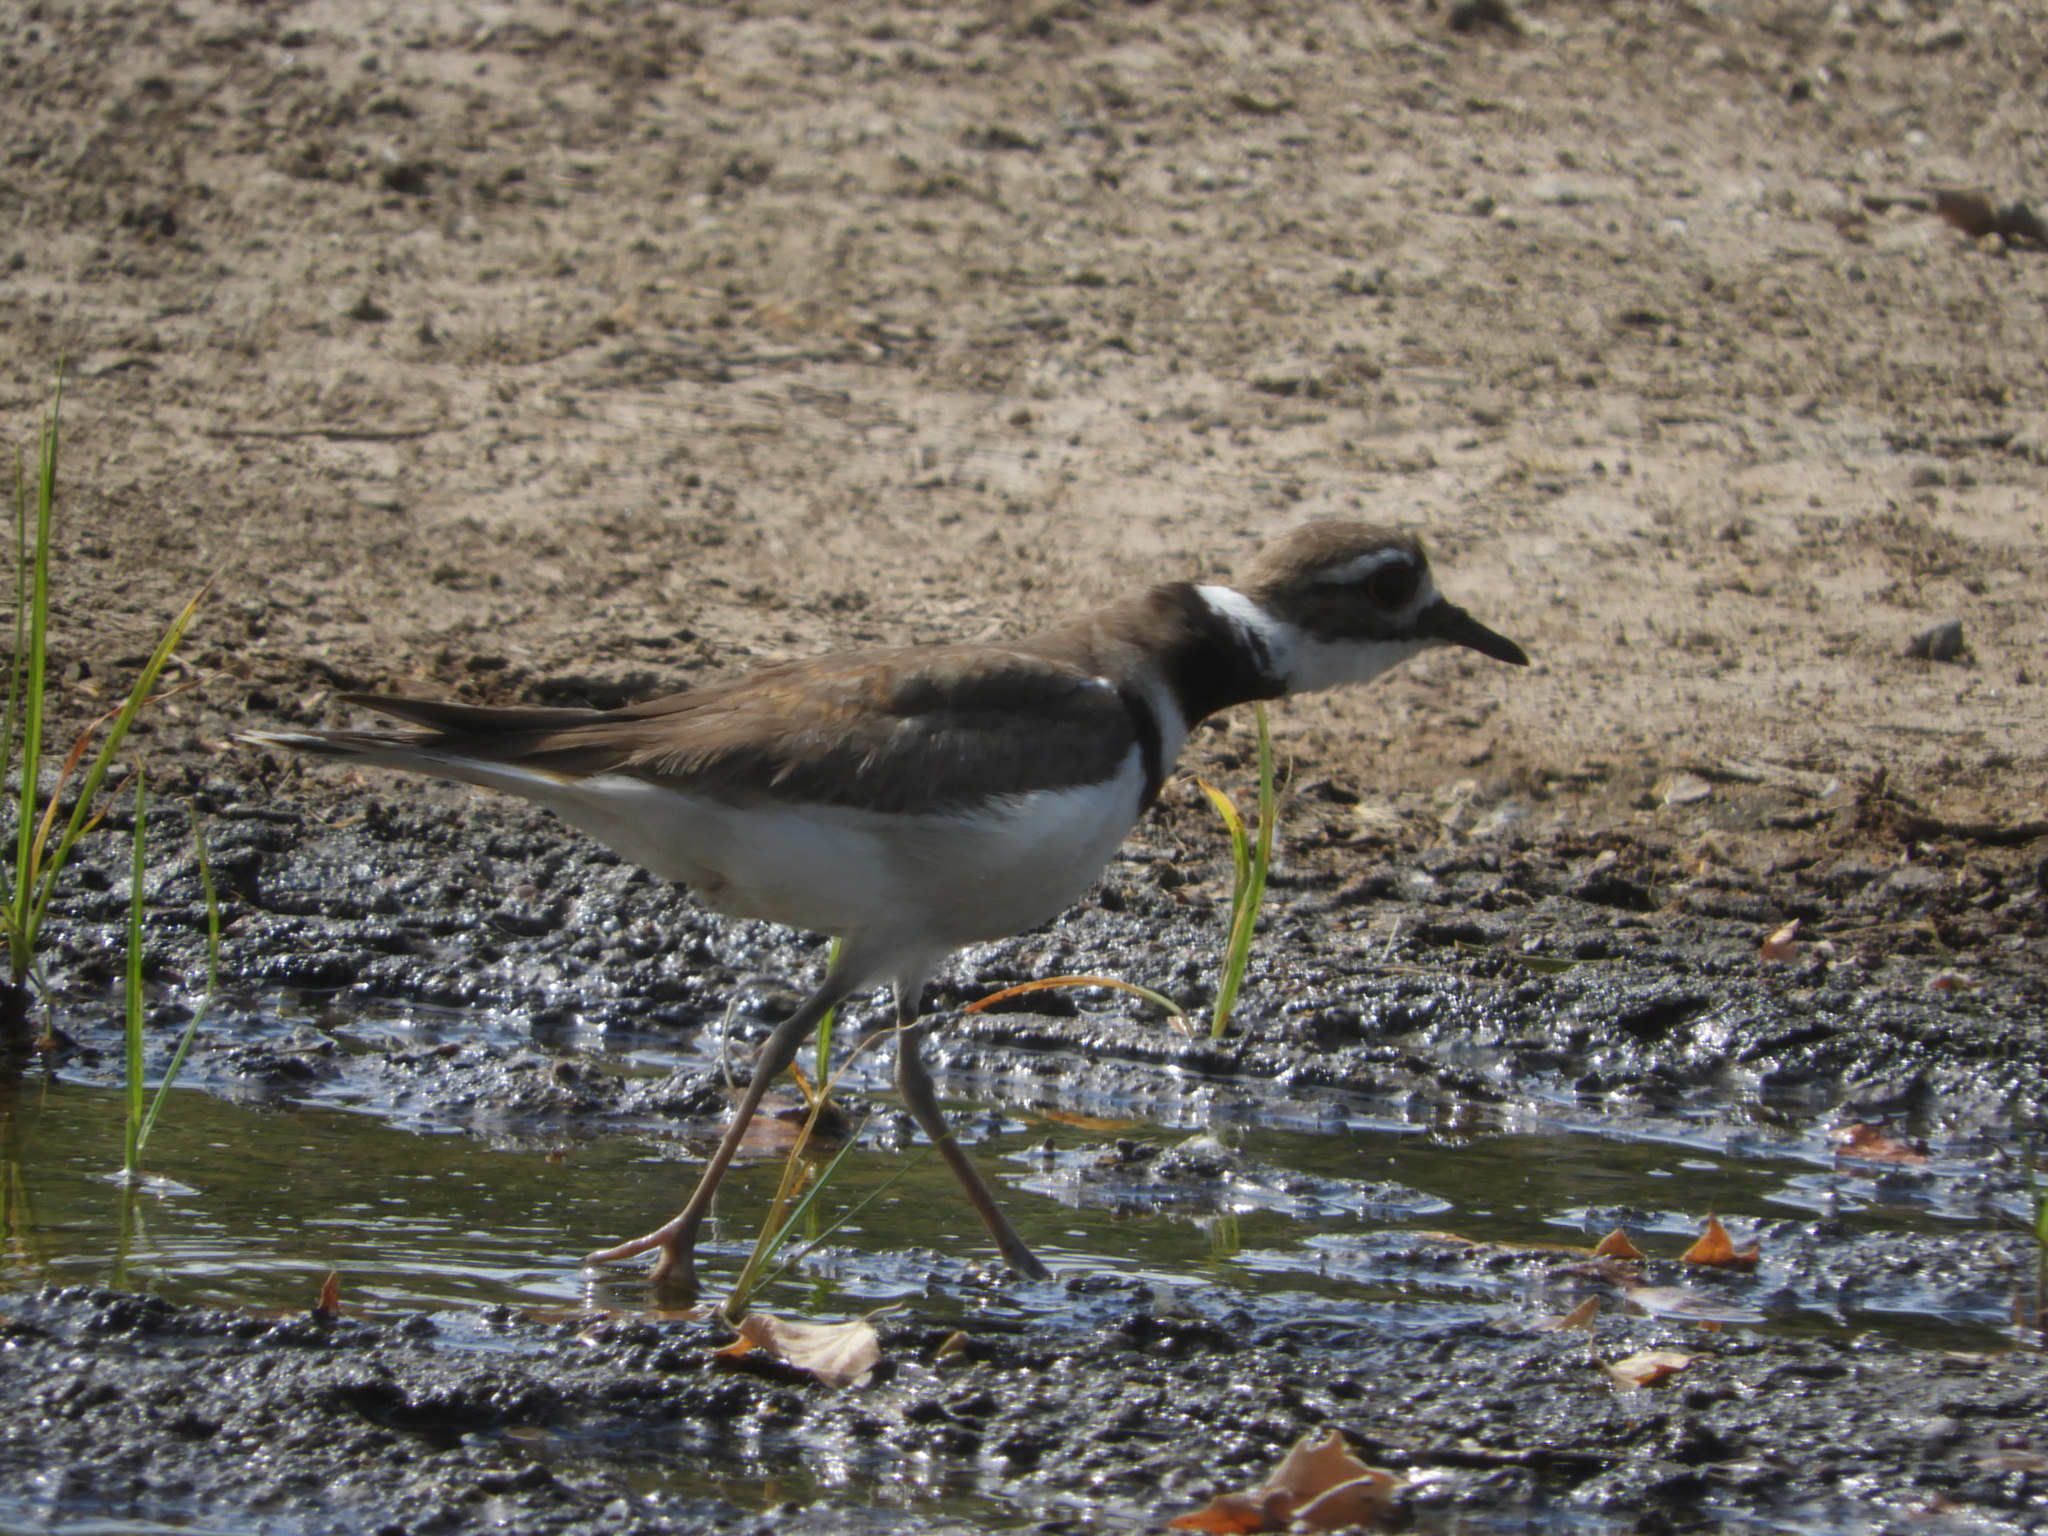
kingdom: Animalia
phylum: Chordata
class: Aves
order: Charadriiformes
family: Charadriidae
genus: Charadrius
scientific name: Charadrius vociferus
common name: Killdeer
